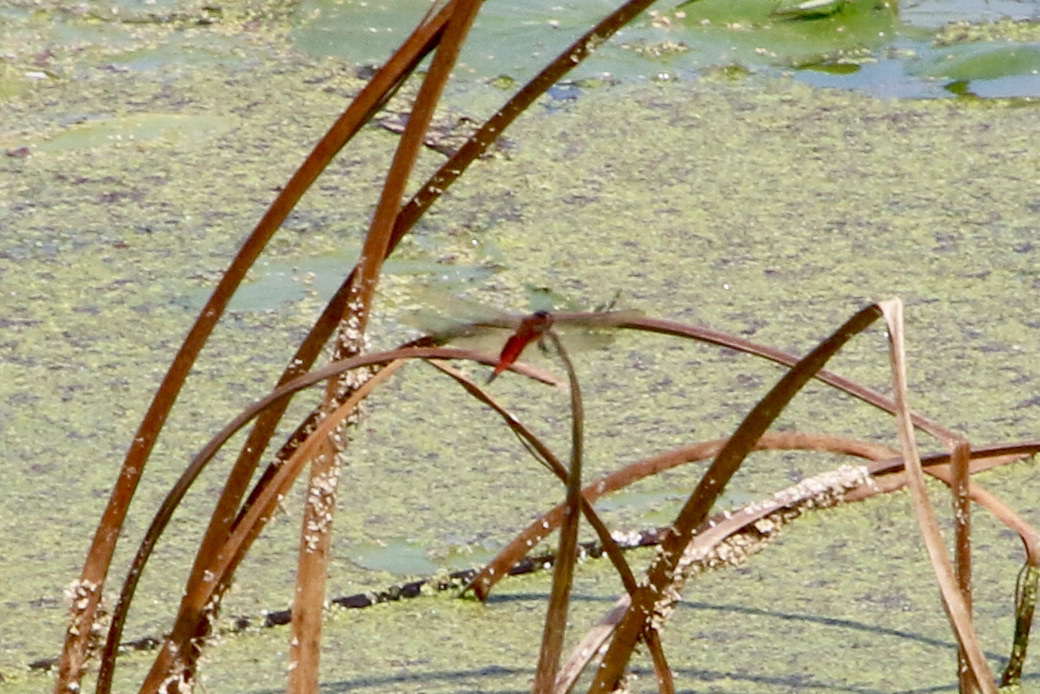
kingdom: Animalia
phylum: Arthropoda
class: Insecta
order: Odonata
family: Libellulidae
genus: Tramea
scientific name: Tramea darwini
